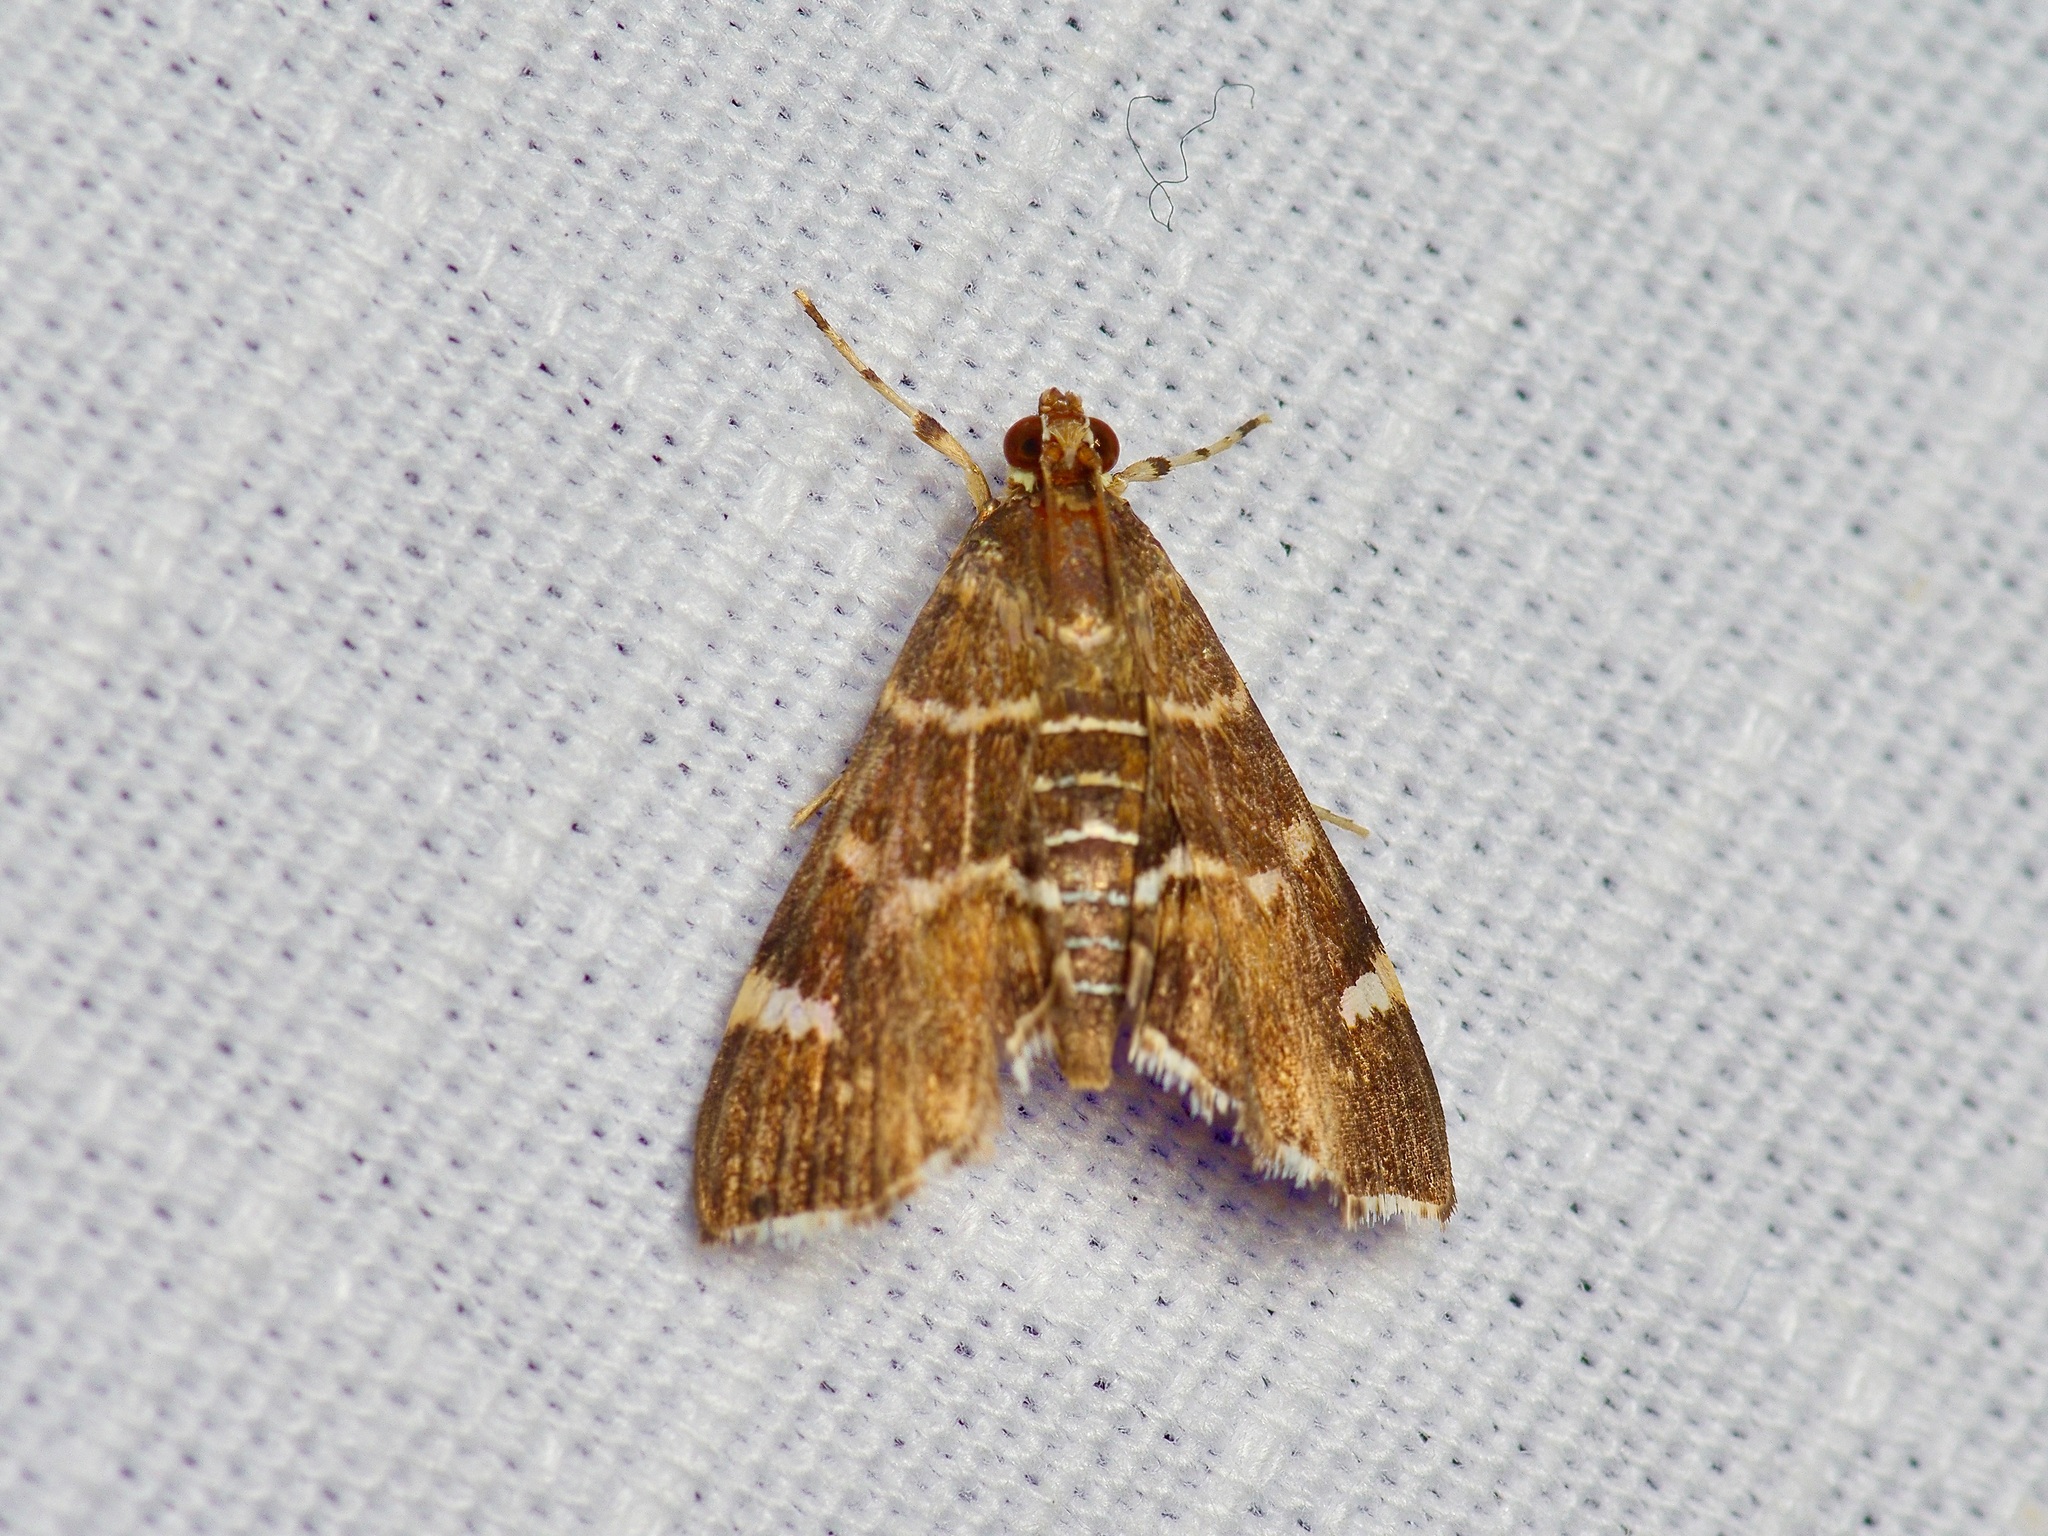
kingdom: Animalia
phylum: Arthropoda
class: Insecta
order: Lepidoptera
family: Crambidae
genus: Hymenia
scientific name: Hymenia perspectalis
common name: Spotted beet webworm
